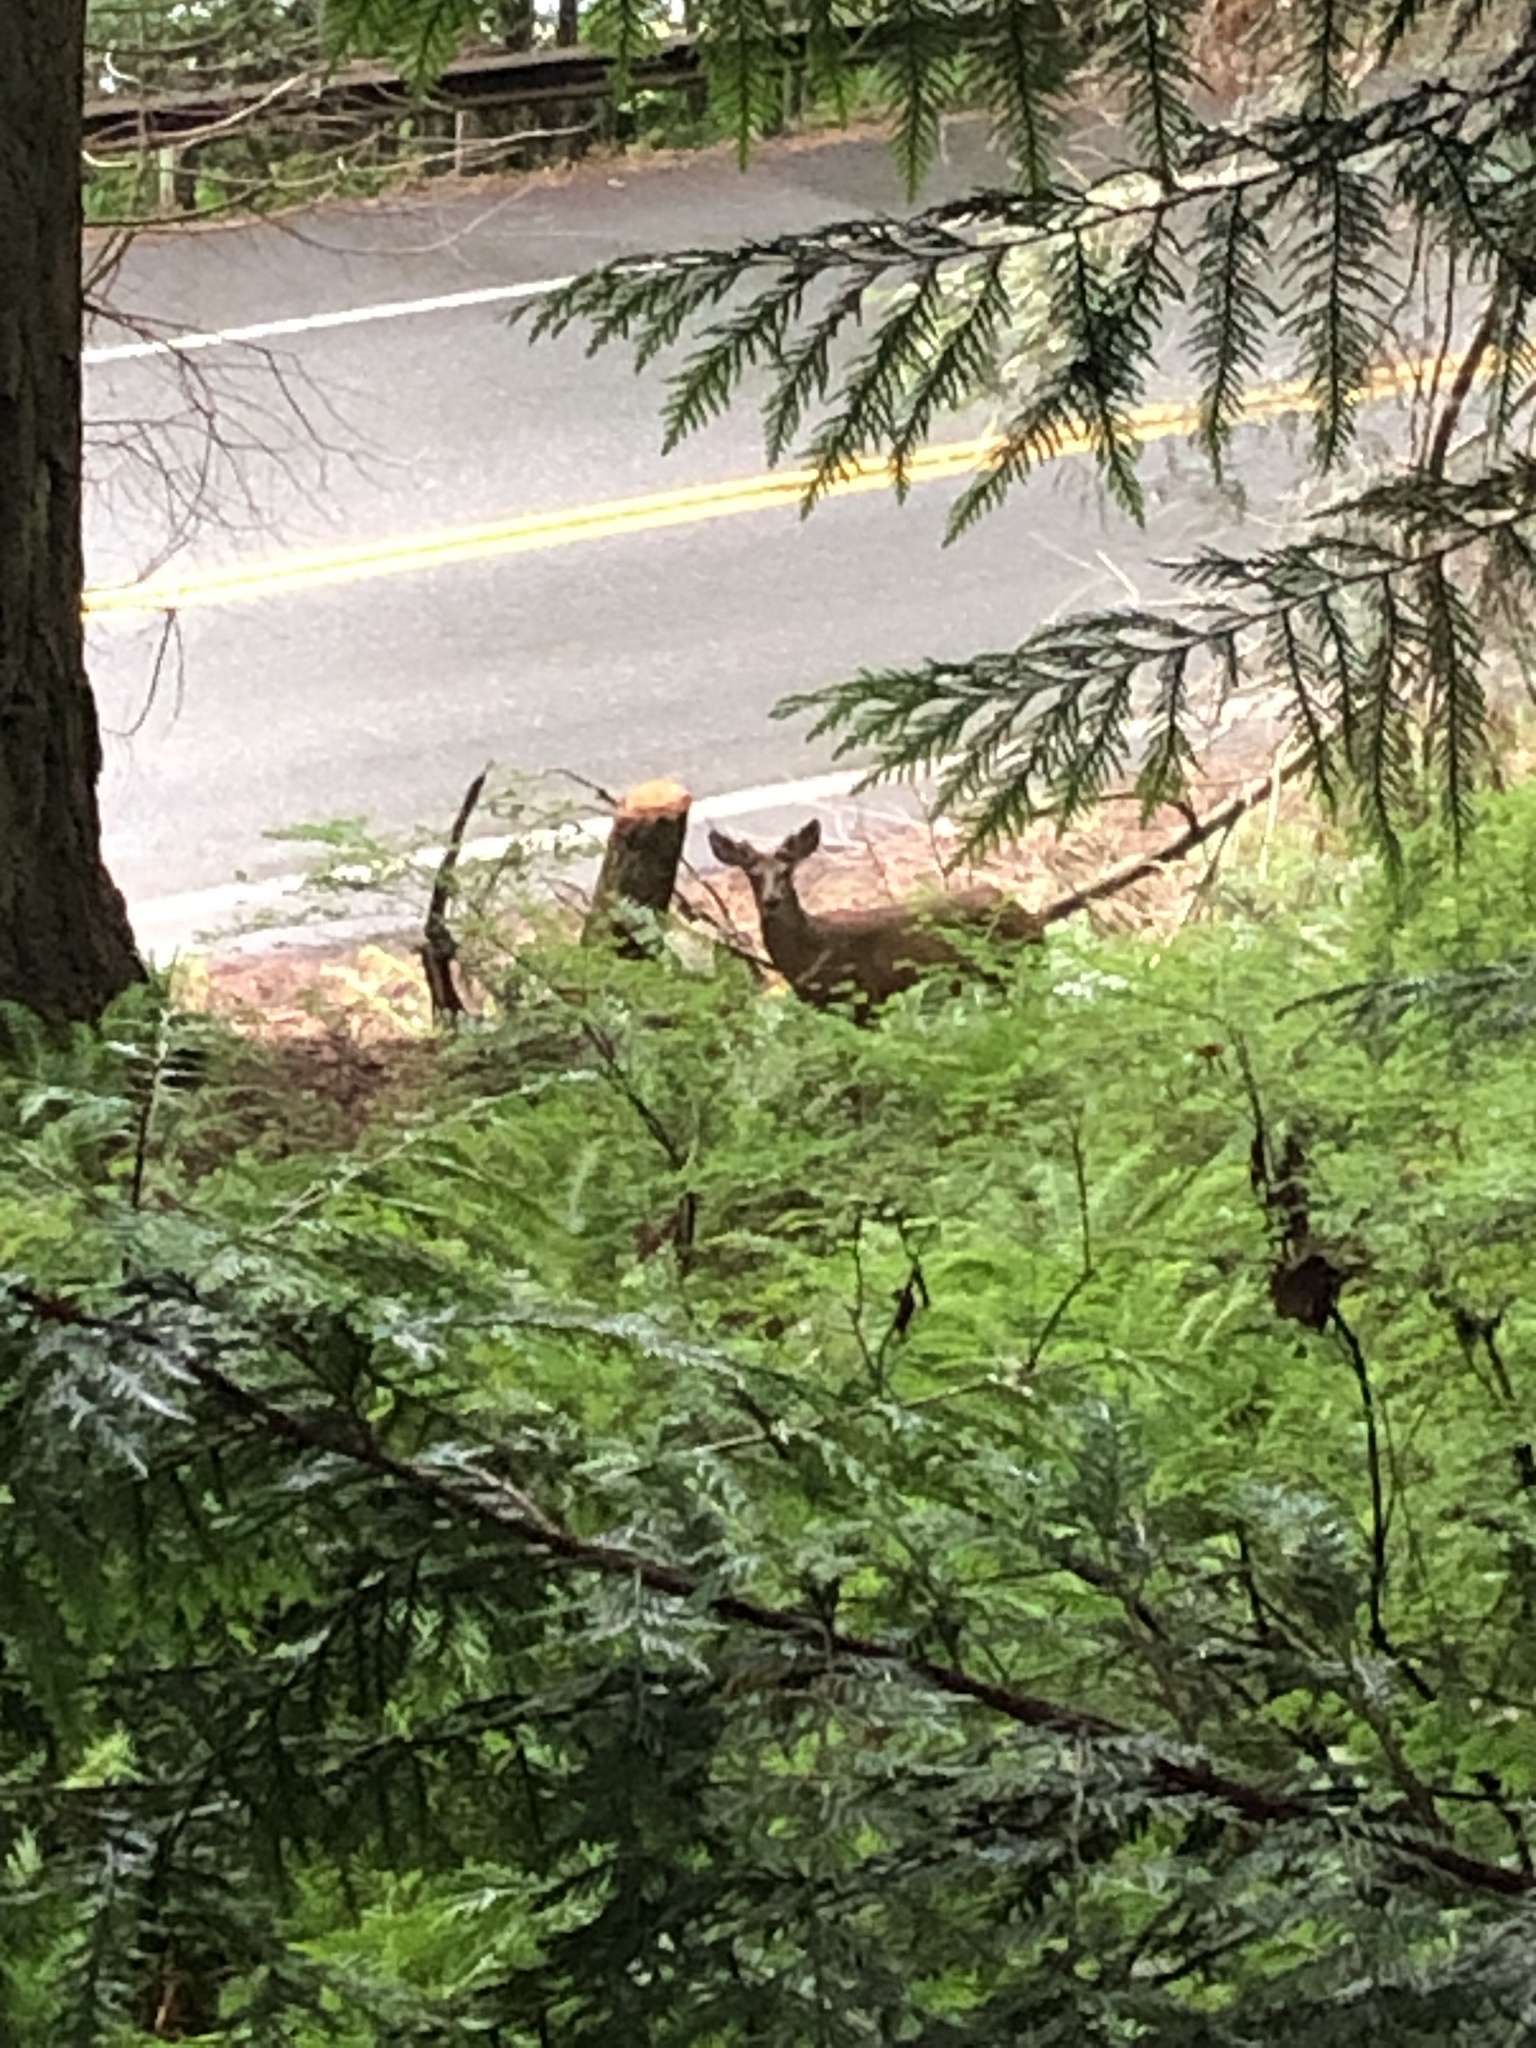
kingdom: Animalia
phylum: Chordata
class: Mammalia
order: Artiodactyla
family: Cervidae
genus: Odocoileus
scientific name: Odocoileus hemionus
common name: Mule deer
